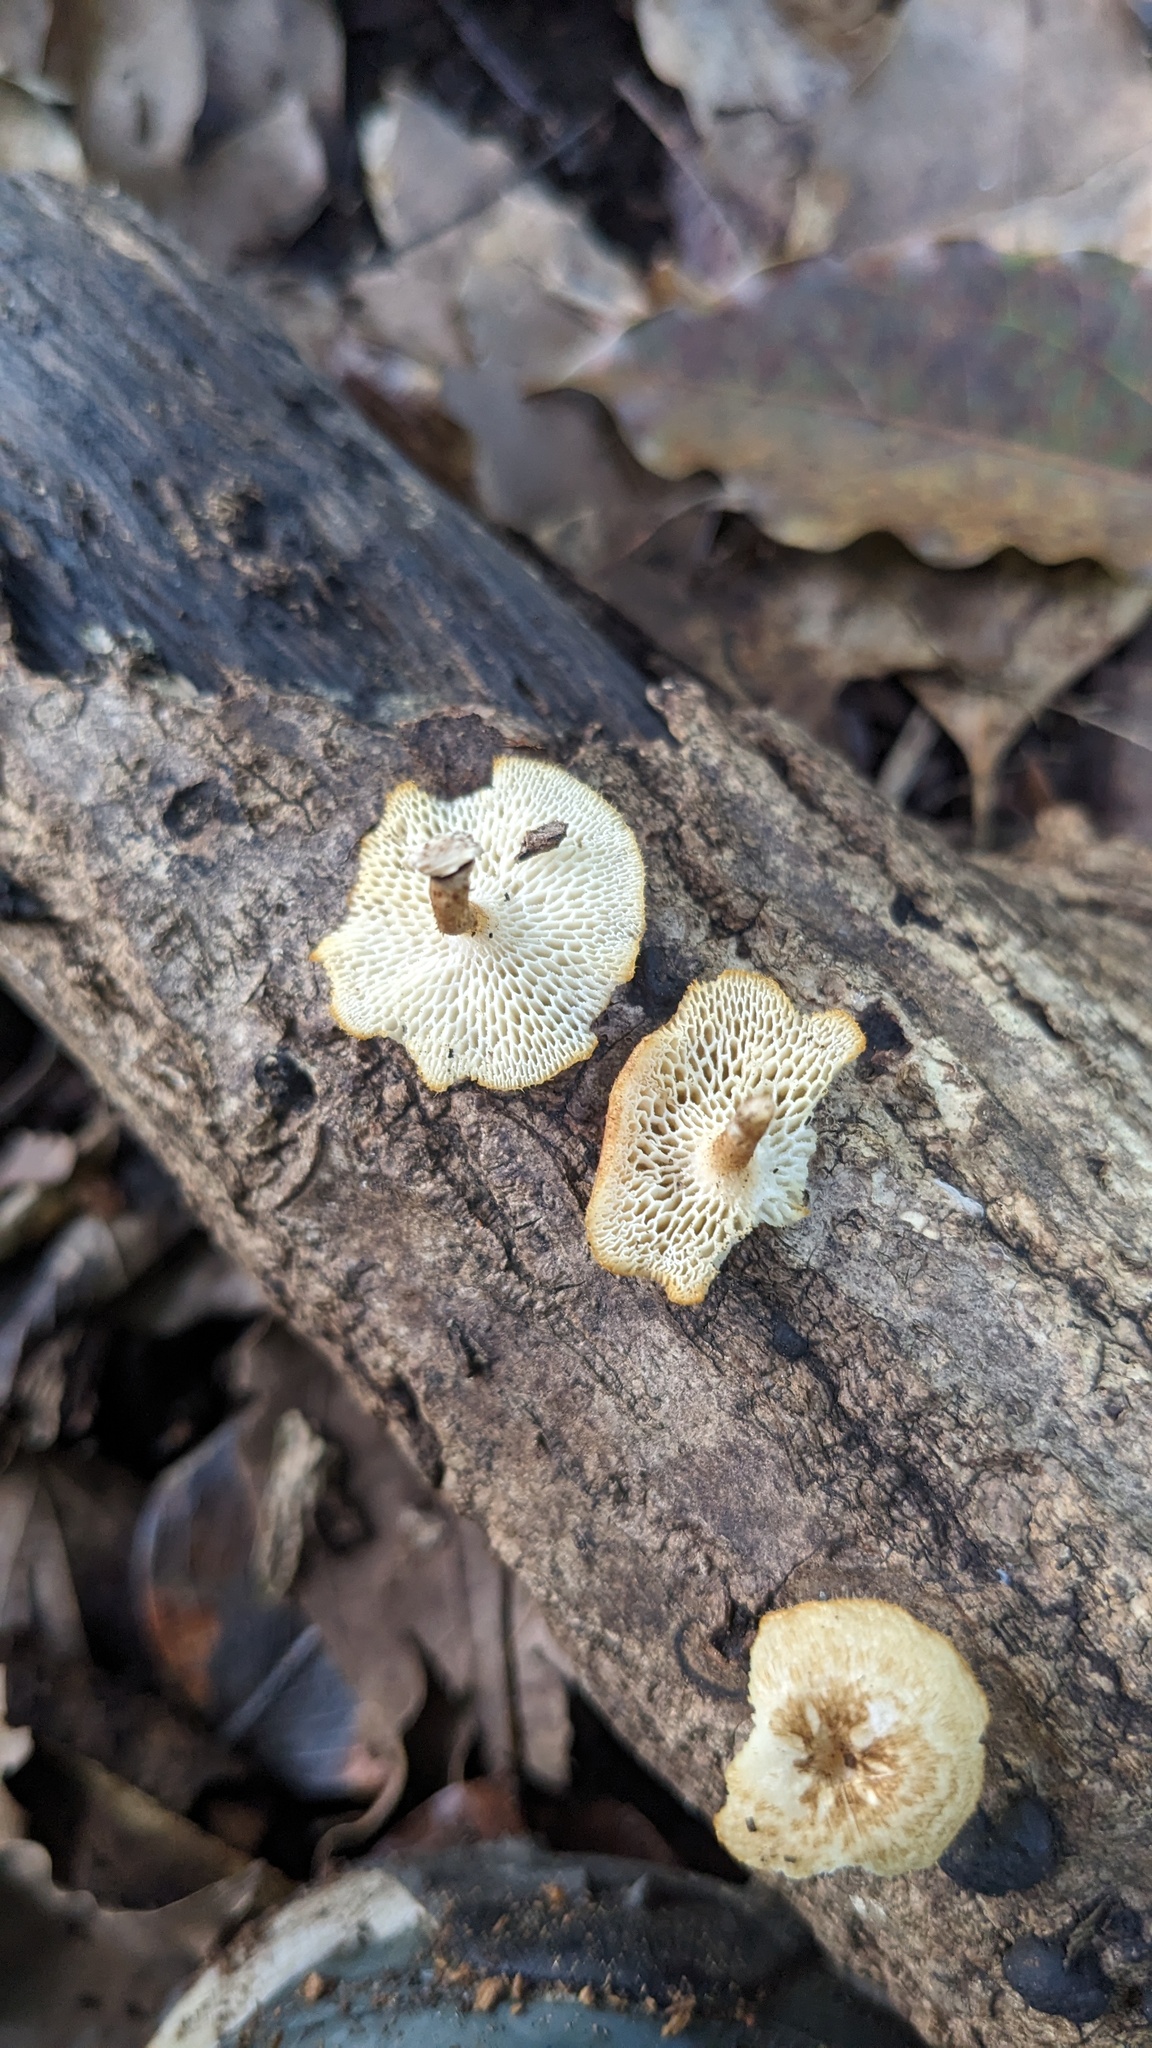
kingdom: Fungi
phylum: Basidiomycota
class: Agaricomycetes
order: Polyporales
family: Polyporaceae
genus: Lentinus
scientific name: Lentinus arcularius
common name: Spring polypore
